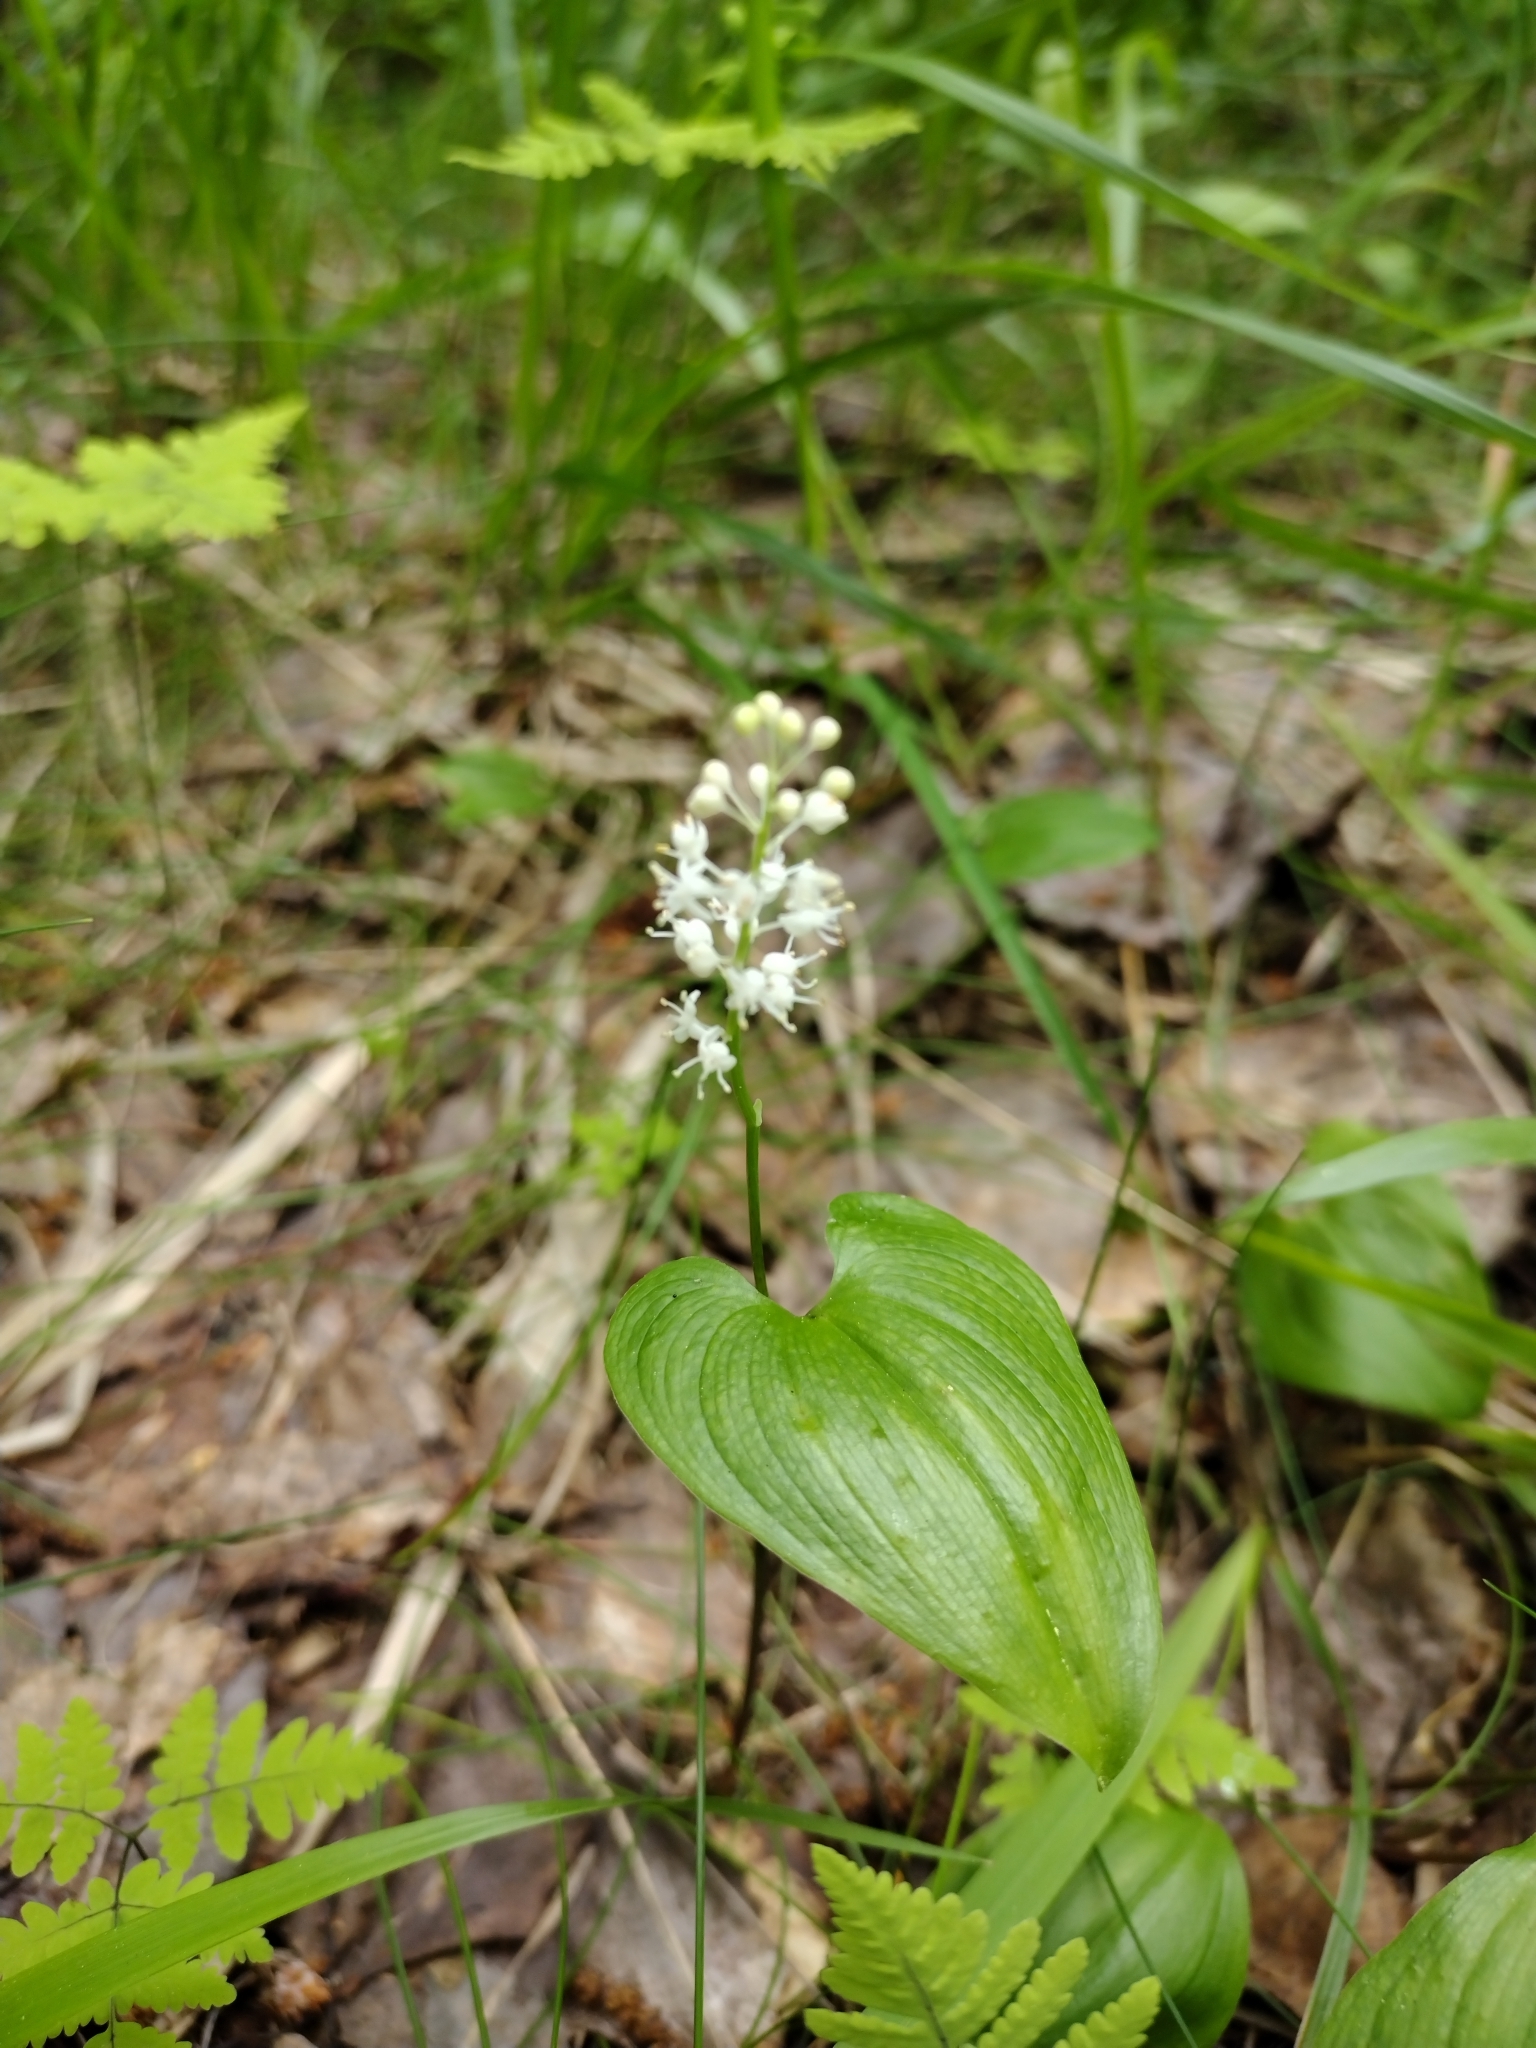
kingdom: Plantae
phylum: Tracheophyta
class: Liliopsida
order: Asparagales
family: Asparagaceae
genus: Maianthemum
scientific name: Maianthemum bifolium
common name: May lily
